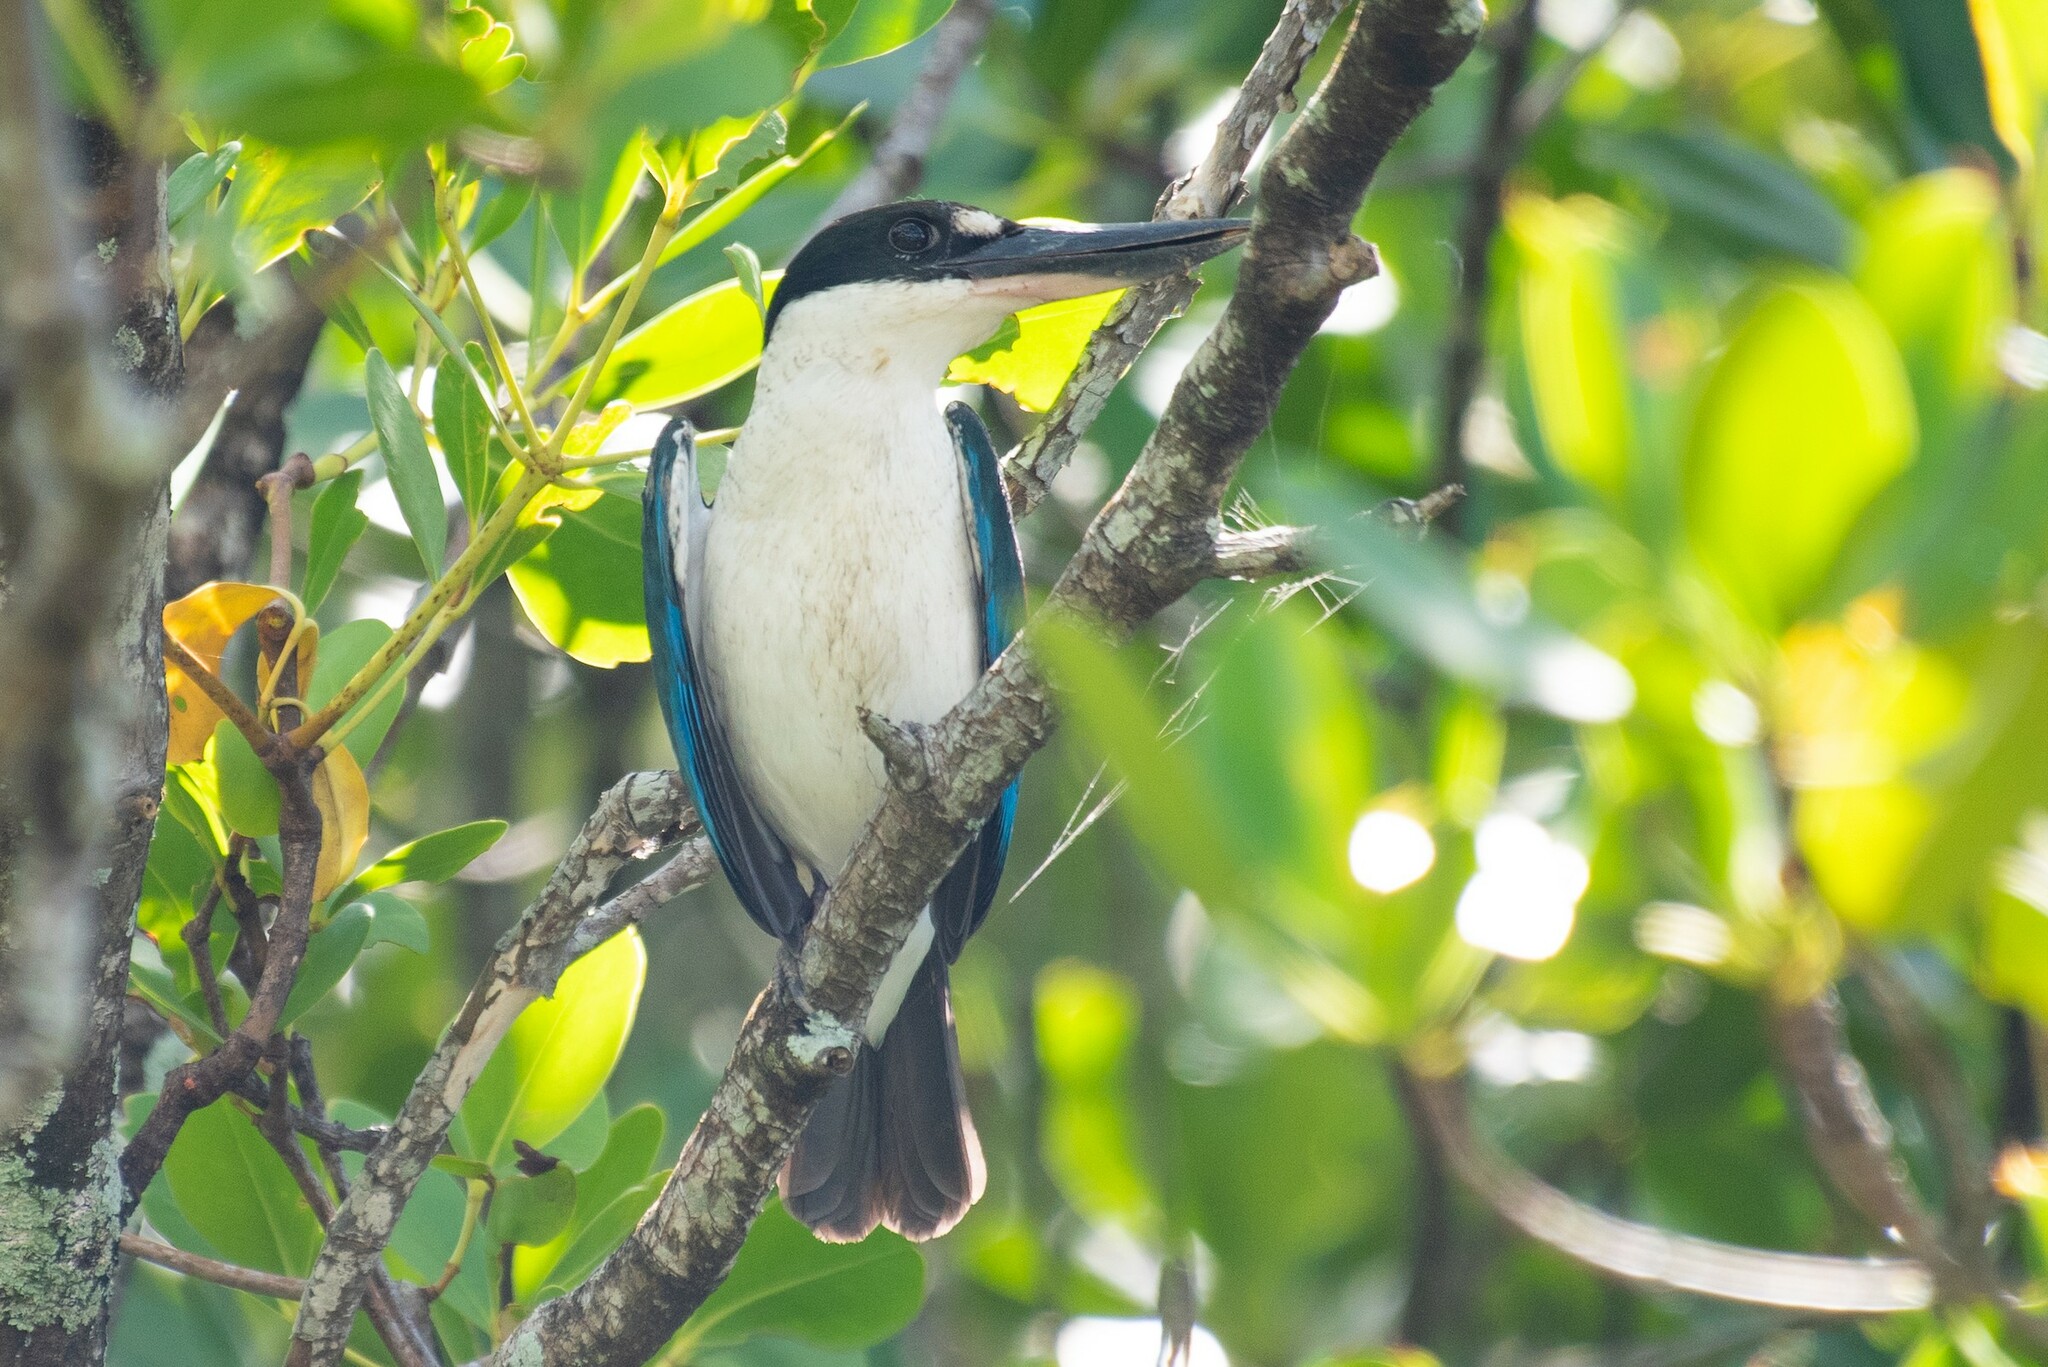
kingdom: Animalia
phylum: Chordata
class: Aves
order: Coraciiformes
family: Alcedinidae
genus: Todiramphus
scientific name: Todiramphus sordidus
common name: Torresian kingfisher
